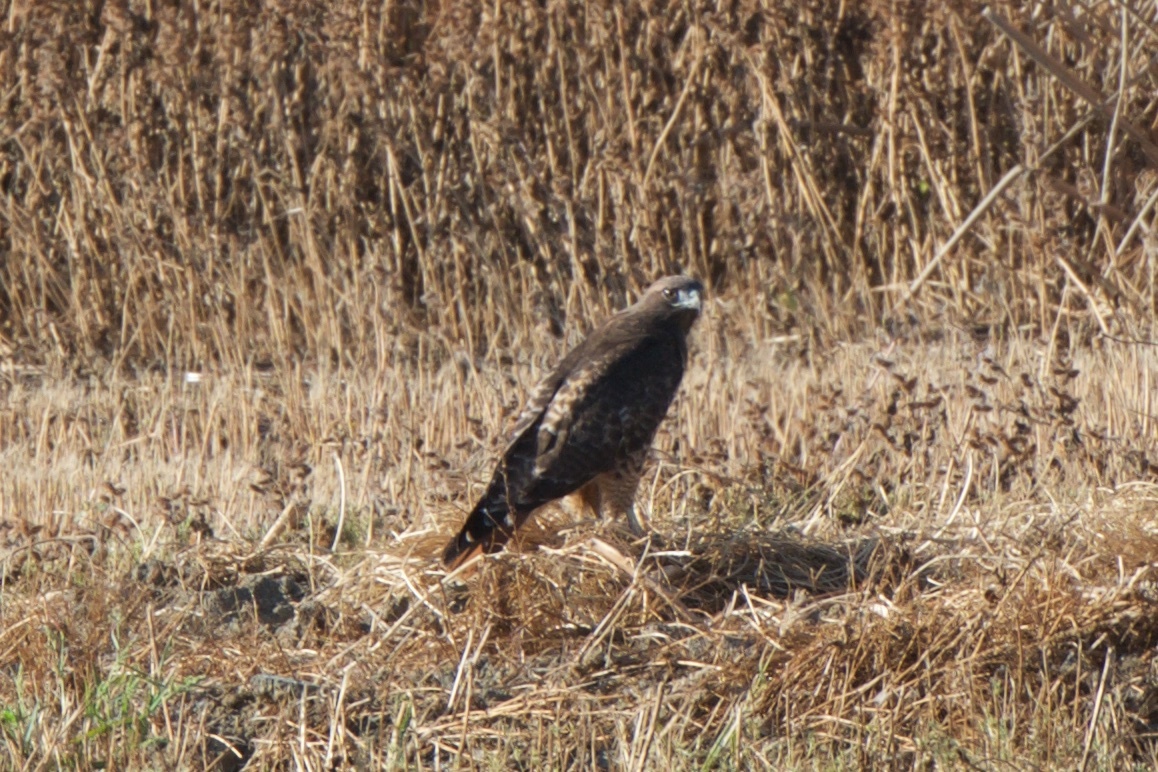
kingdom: Animalia
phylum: Chordata
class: Aves
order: Accipitriformes
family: Accipitridae
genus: Buteo
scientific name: Buteo jamaicensis
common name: Red-tailed hawk
